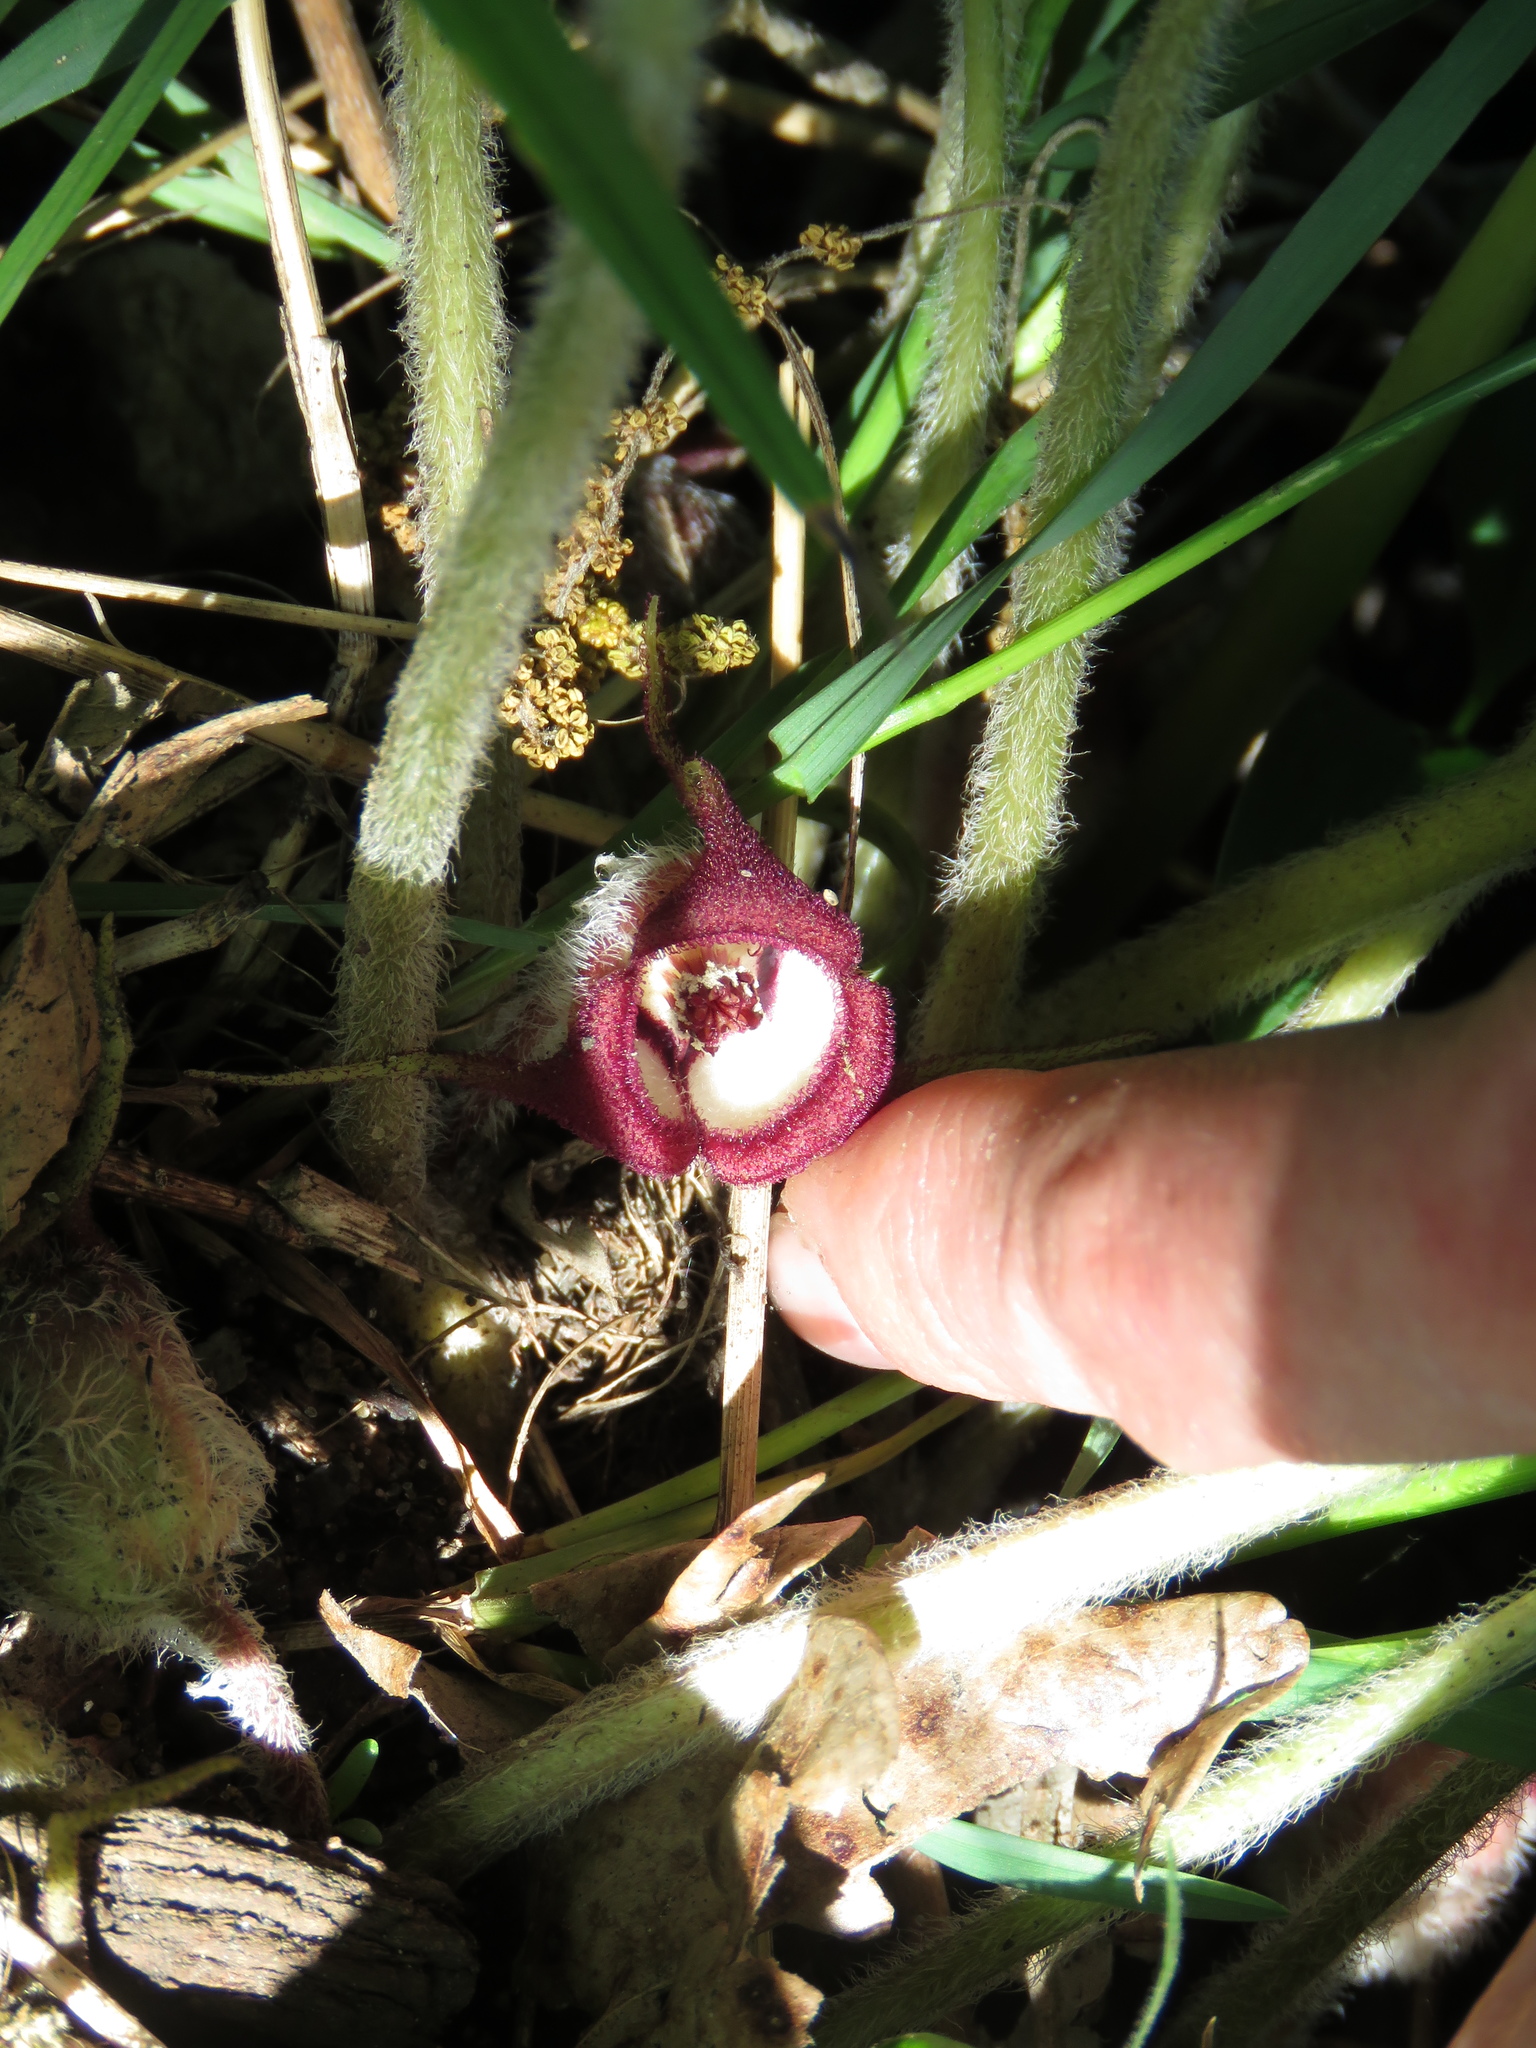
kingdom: Plantae
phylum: Tracheophyta
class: Magnoliopsida
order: Piperales
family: Aristolochiaceae
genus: Asarum
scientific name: Asarum canadense
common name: Wild ginger
